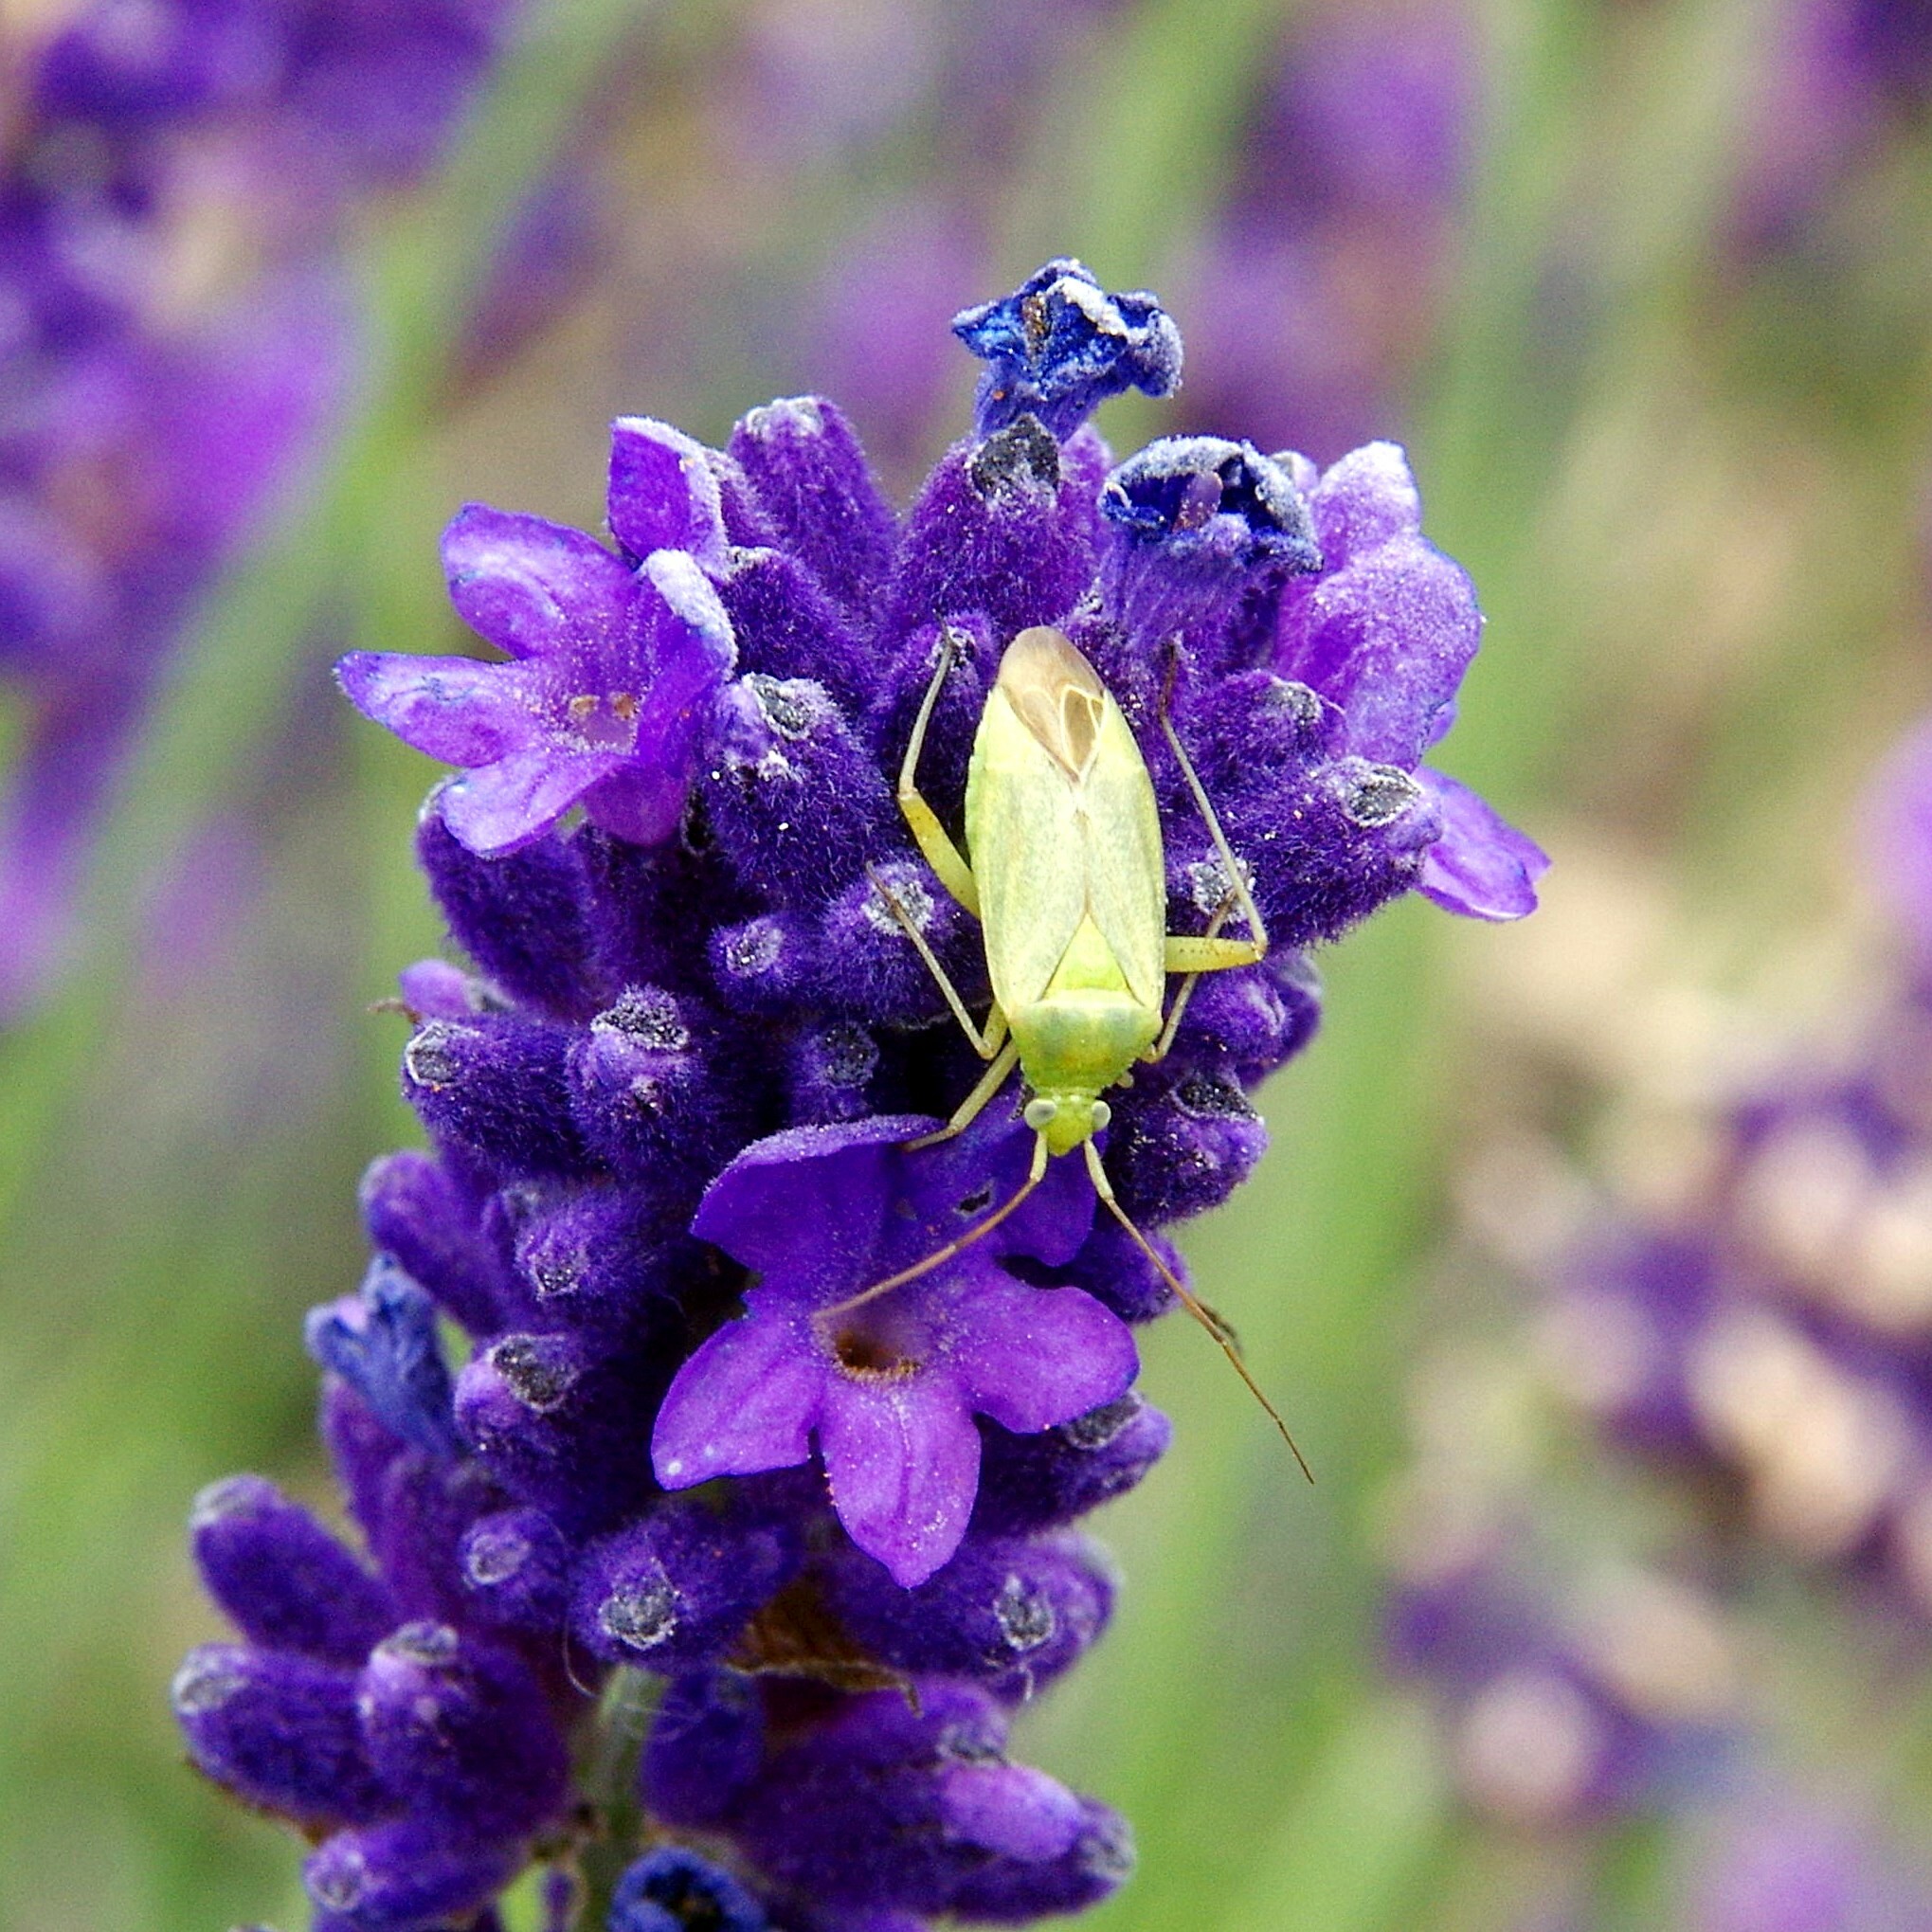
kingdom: Animalia
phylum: Arthropoda
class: Insecta
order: Hemiptera
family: Miridae
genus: Closterotomus
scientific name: Closterotomus norvegicus
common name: Plant bug
